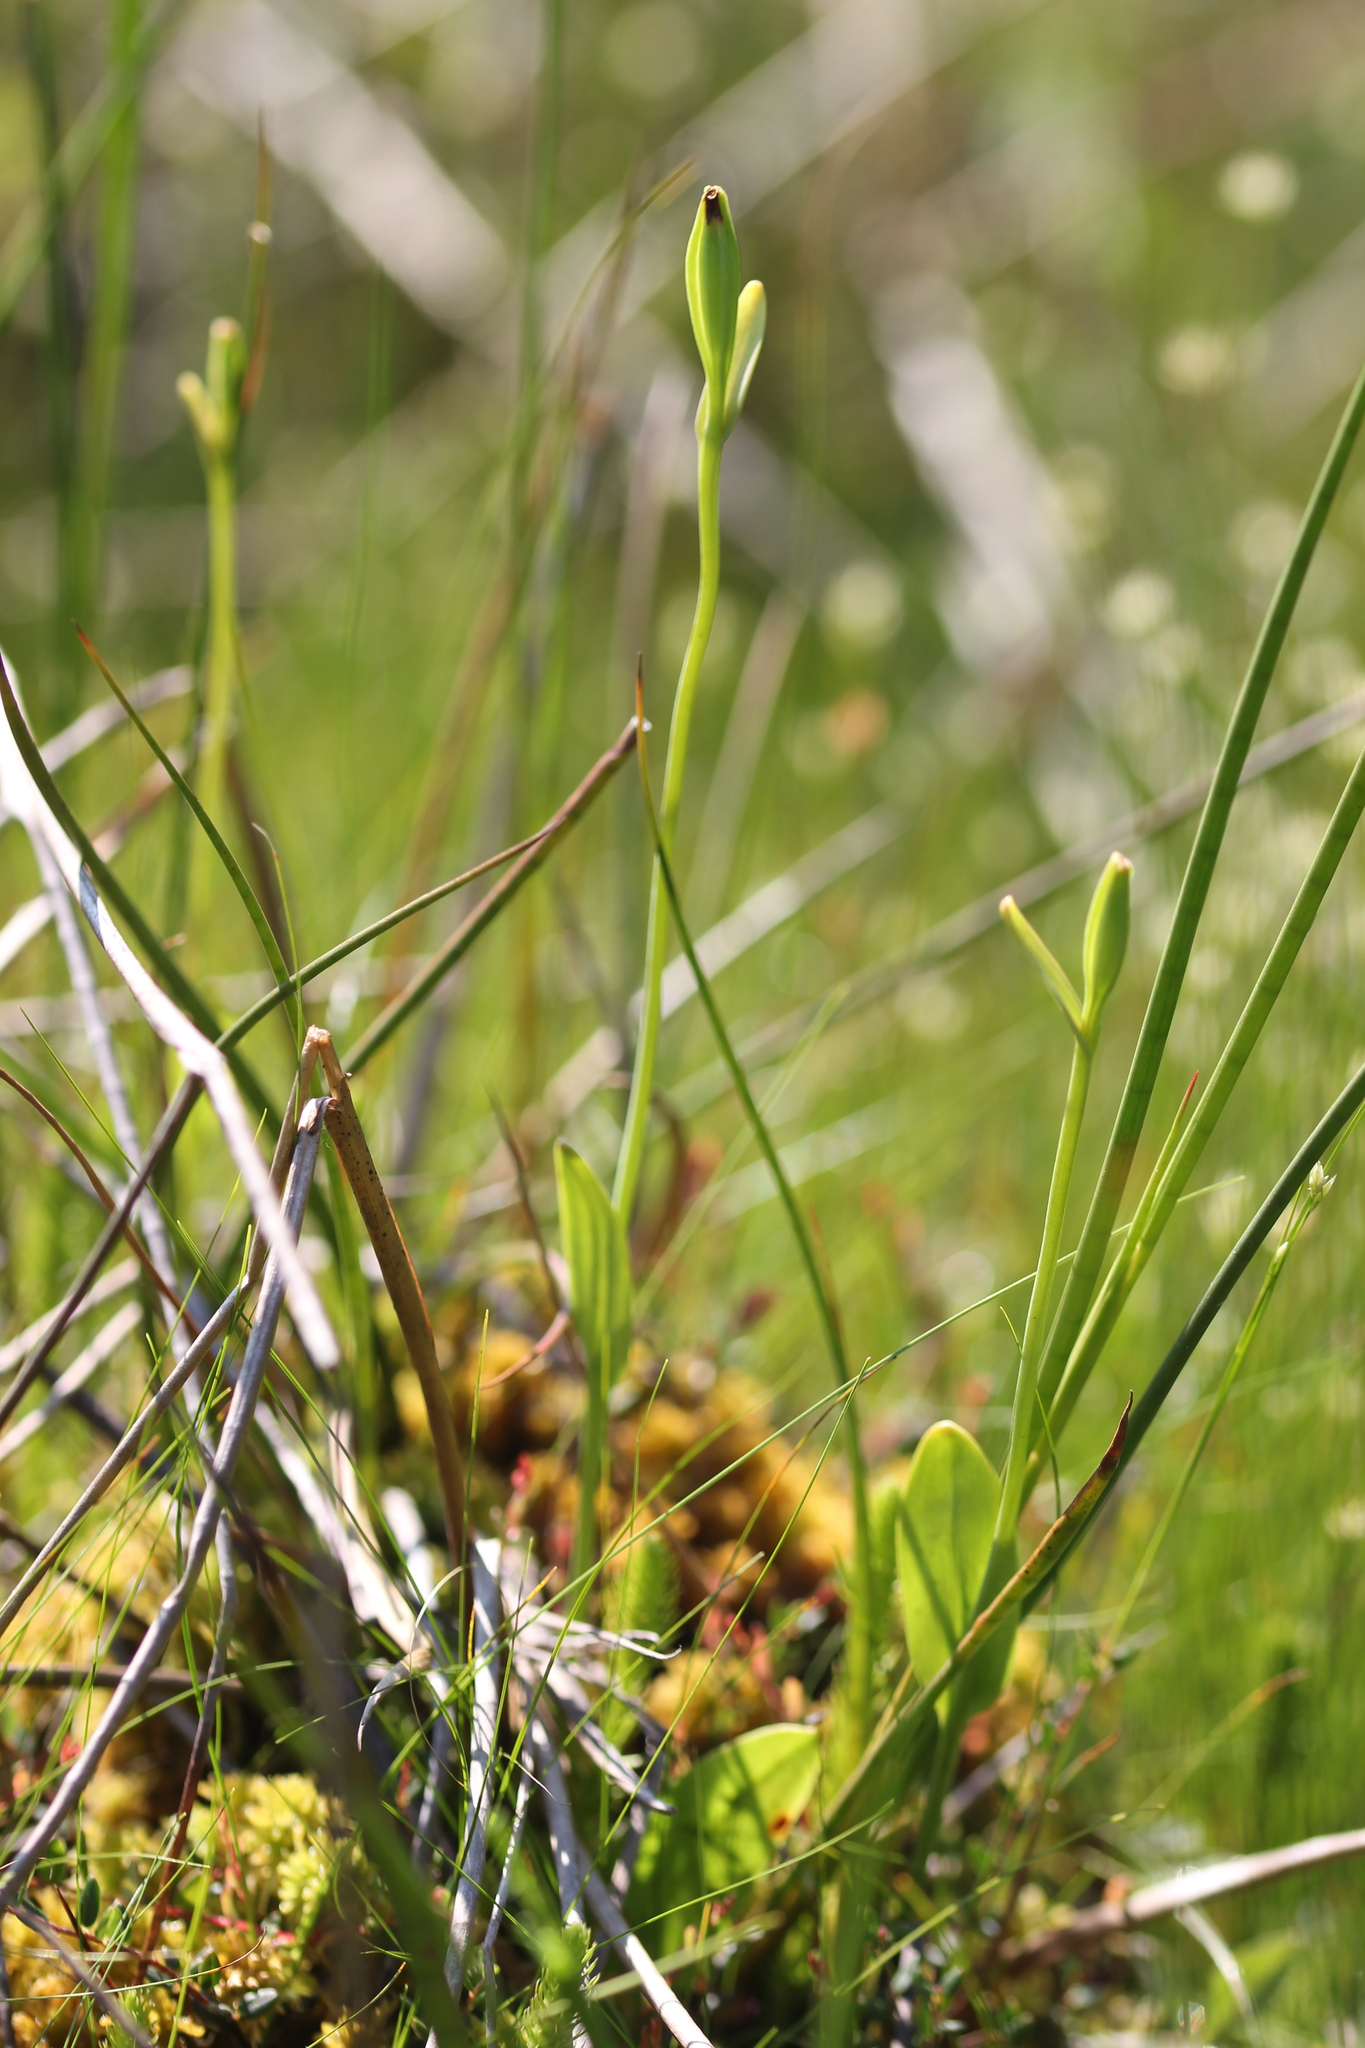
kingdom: Plantae
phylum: Tracheophyta
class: Liliopsida
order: Asparagales
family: Orchidaceae
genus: Pogonia
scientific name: Pogonia ophioglossoides
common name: Rose pogonia
